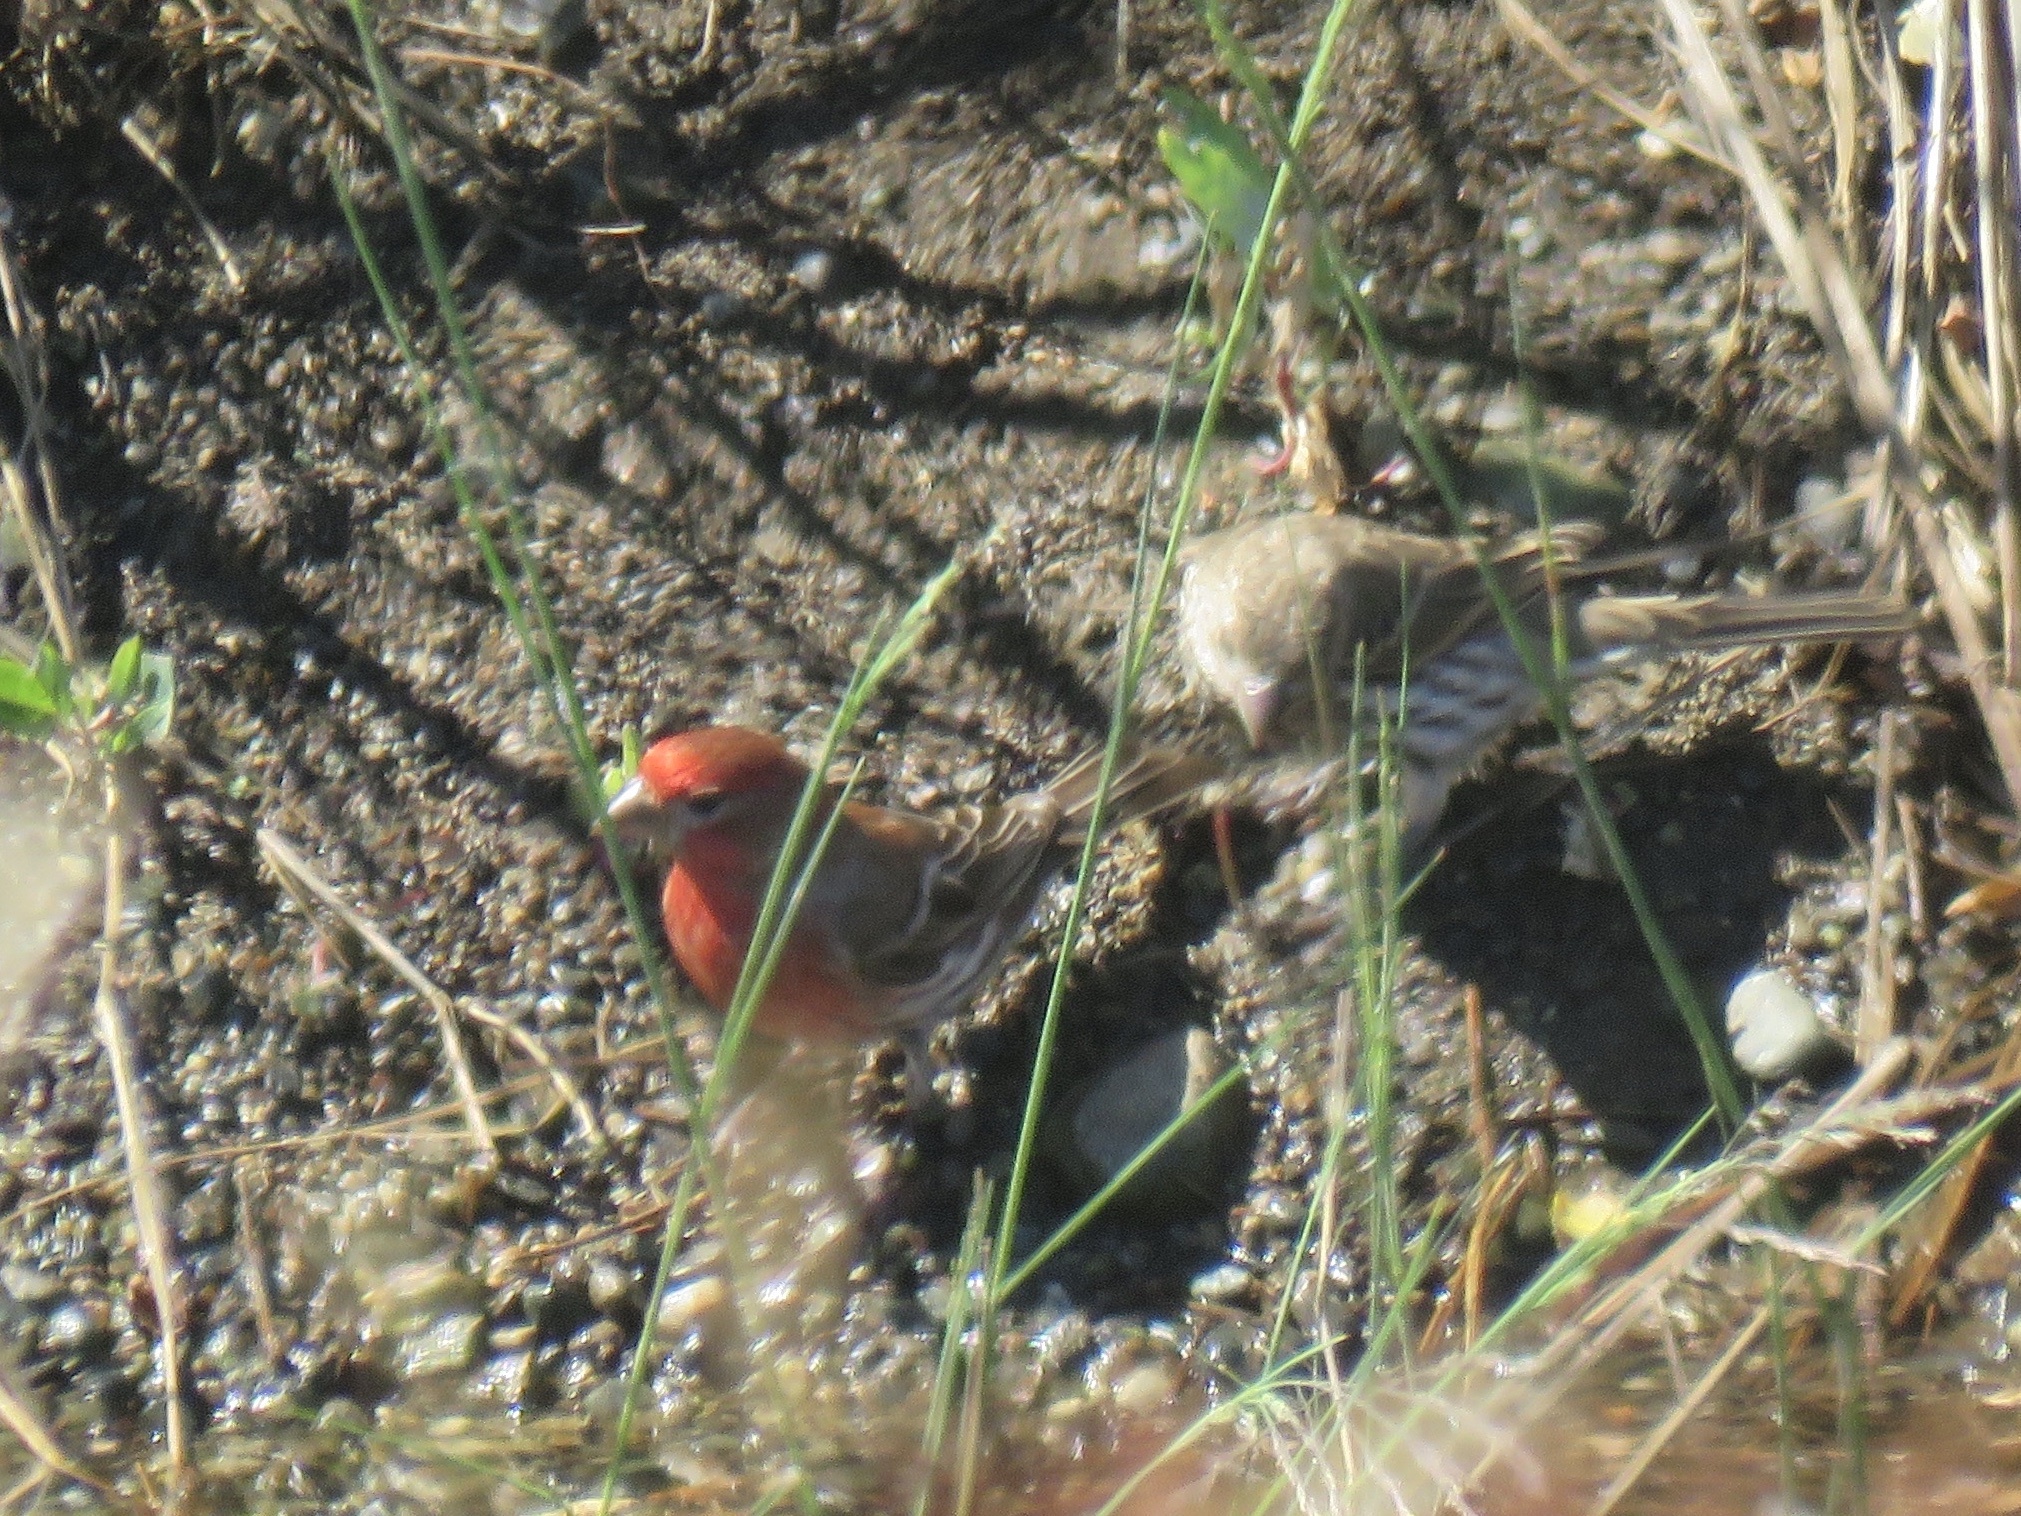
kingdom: Animalia
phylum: Chordata
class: Aves
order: Passeriformes
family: Fringillidae
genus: Haemorhous
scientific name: Haemorhous mexicanus
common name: House finch
